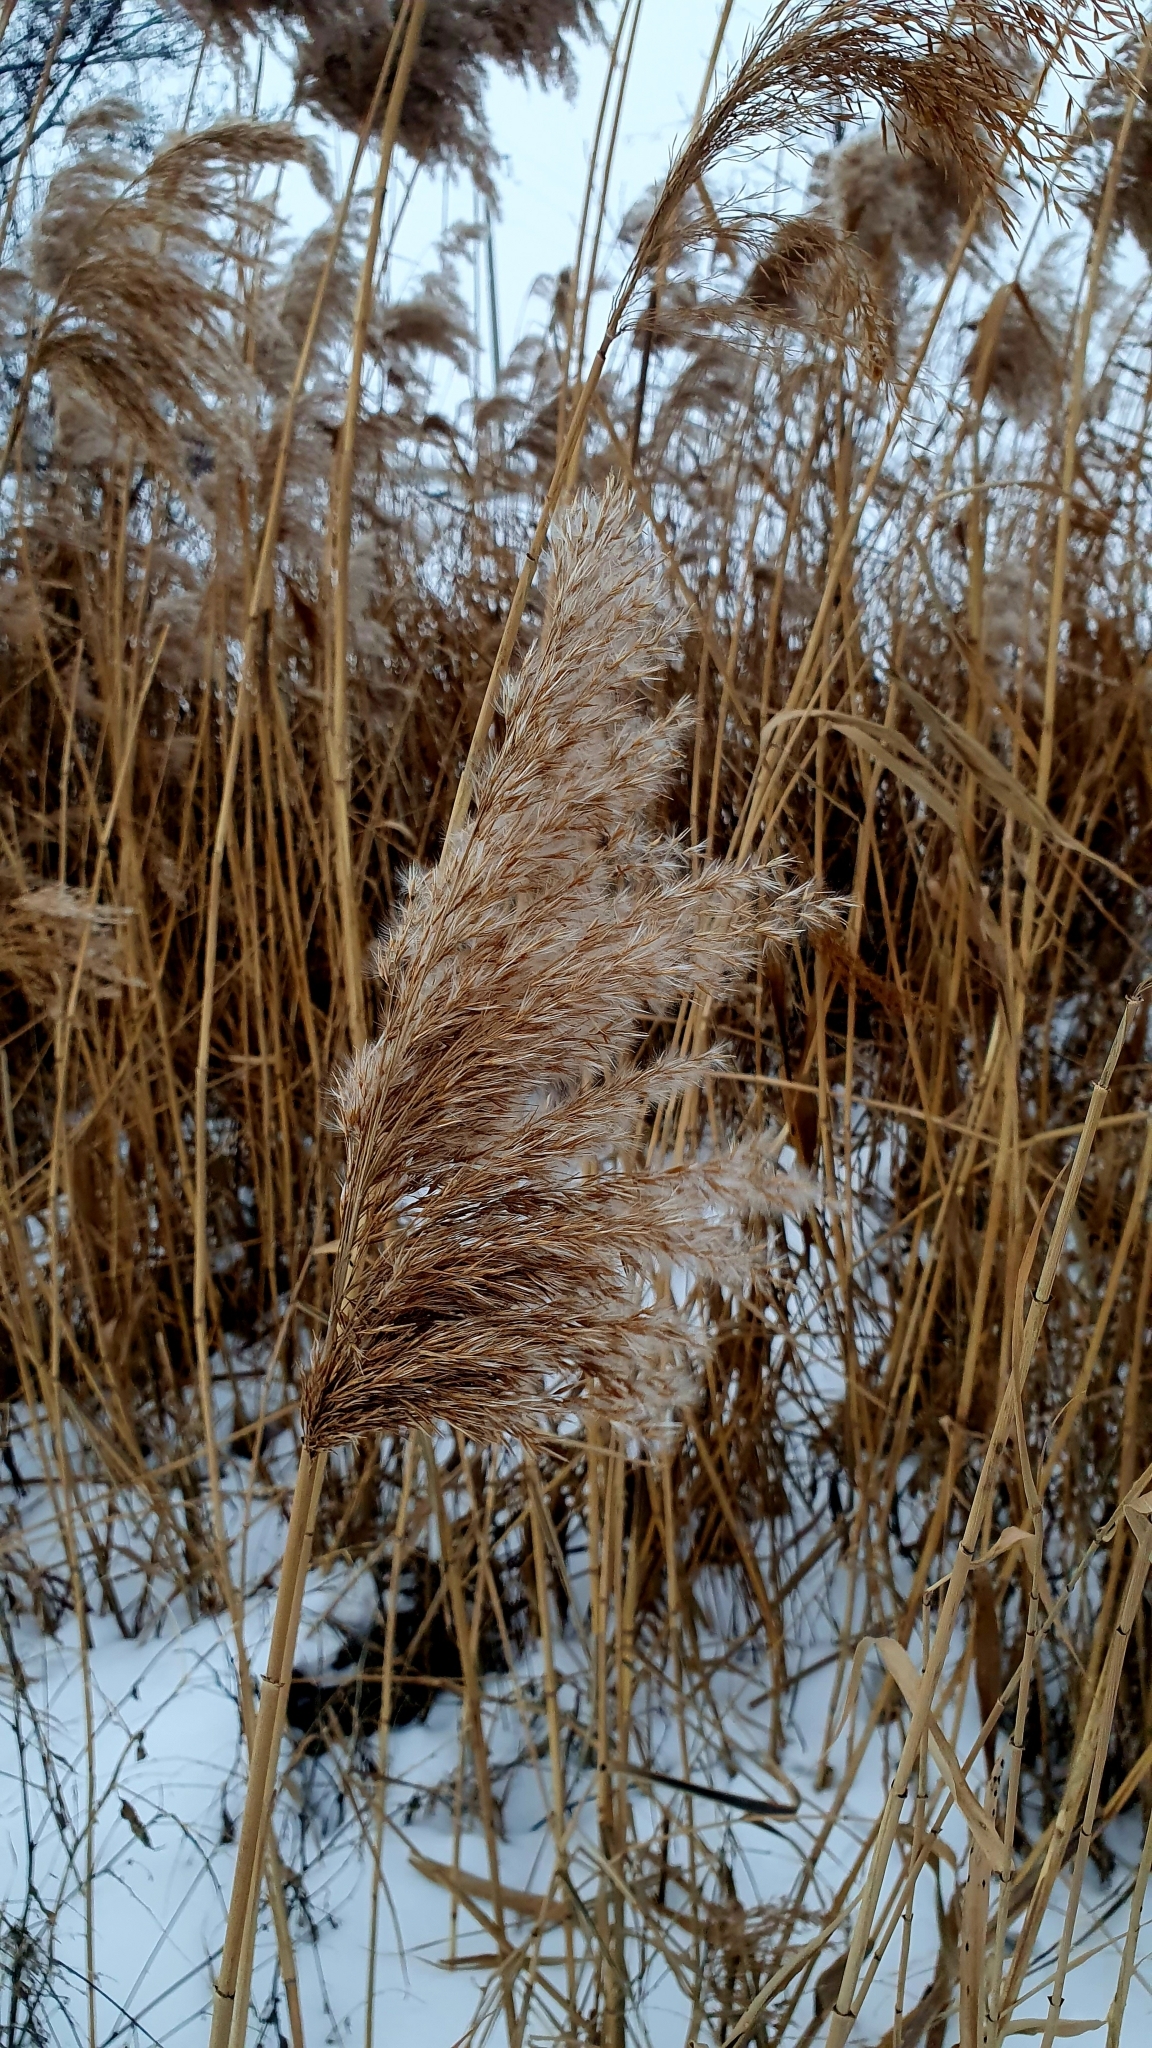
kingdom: Plantae
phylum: Tracheophyta
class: Liliopsida
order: Poales
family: Poaceae
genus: Phragmites
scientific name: Phragmites australis
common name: Common reed
